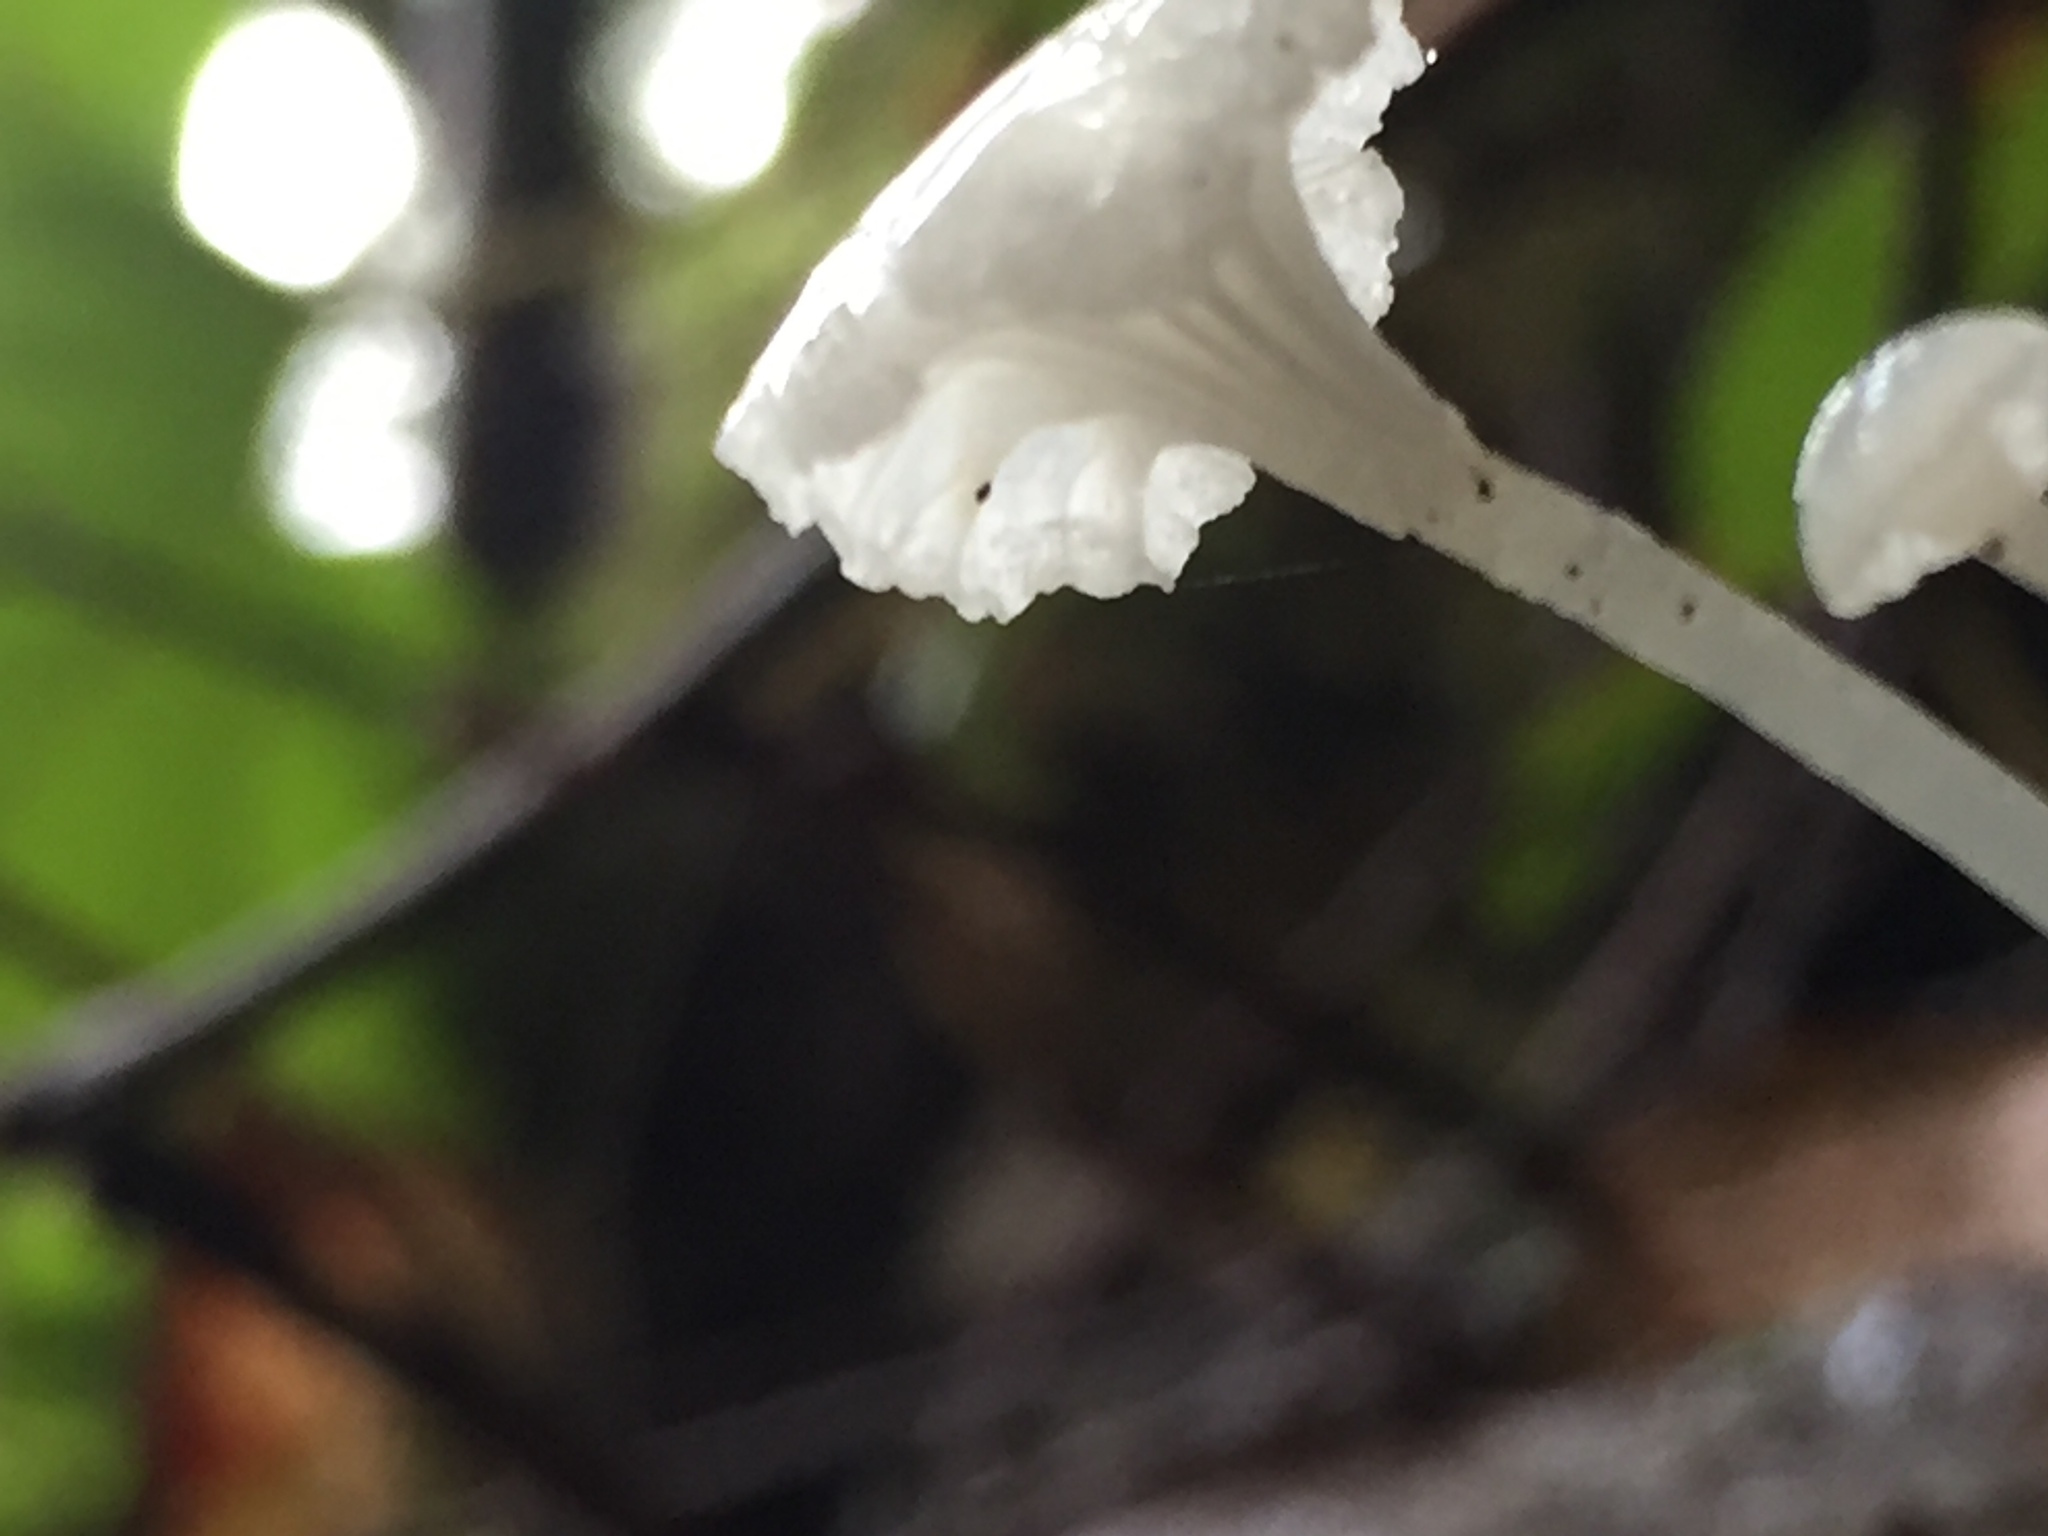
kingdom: Fungi
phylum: Basidiomycota
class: Agaricomycetes
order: Agaricales
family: Marasmiaceae
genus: Marasmius
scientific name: Marasmius calhouniae
